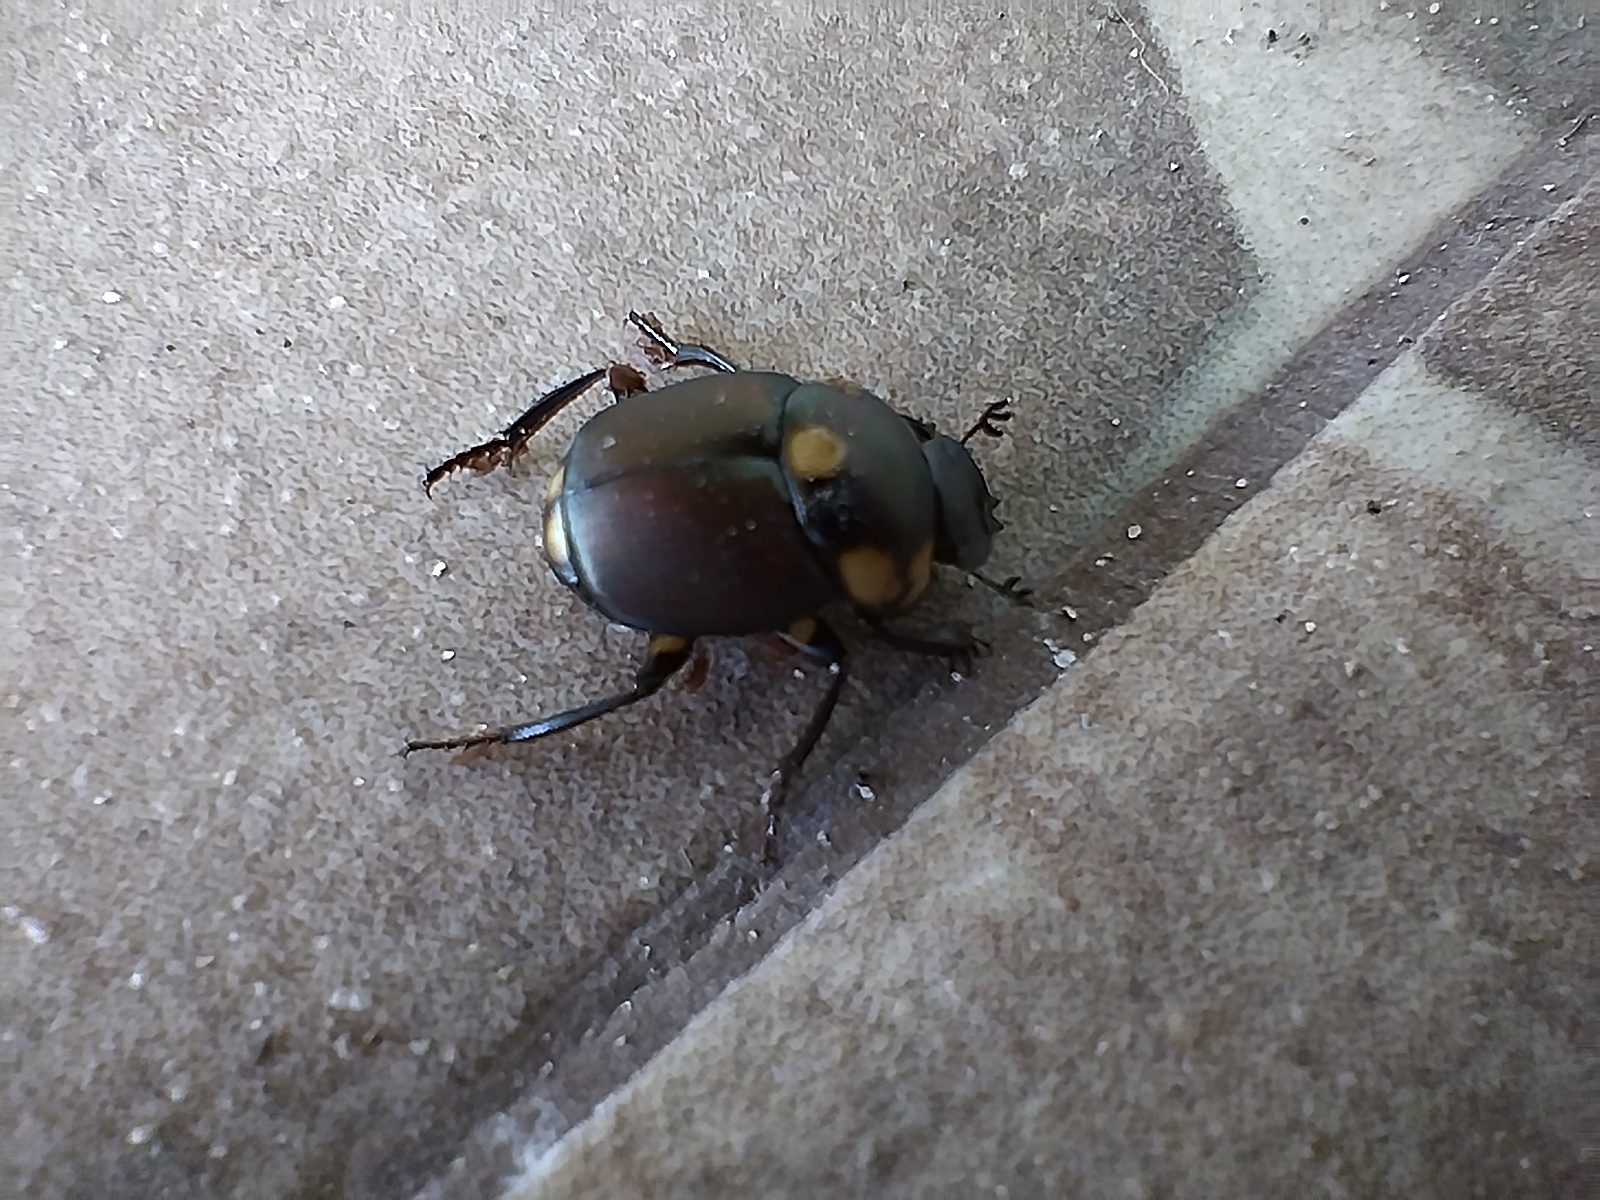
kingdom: Animalia
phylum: Arthropoda
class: Insecta
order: Coleoptera
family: Scarabaeidae
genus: Canthon
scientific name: Canthon septemmaculatus
